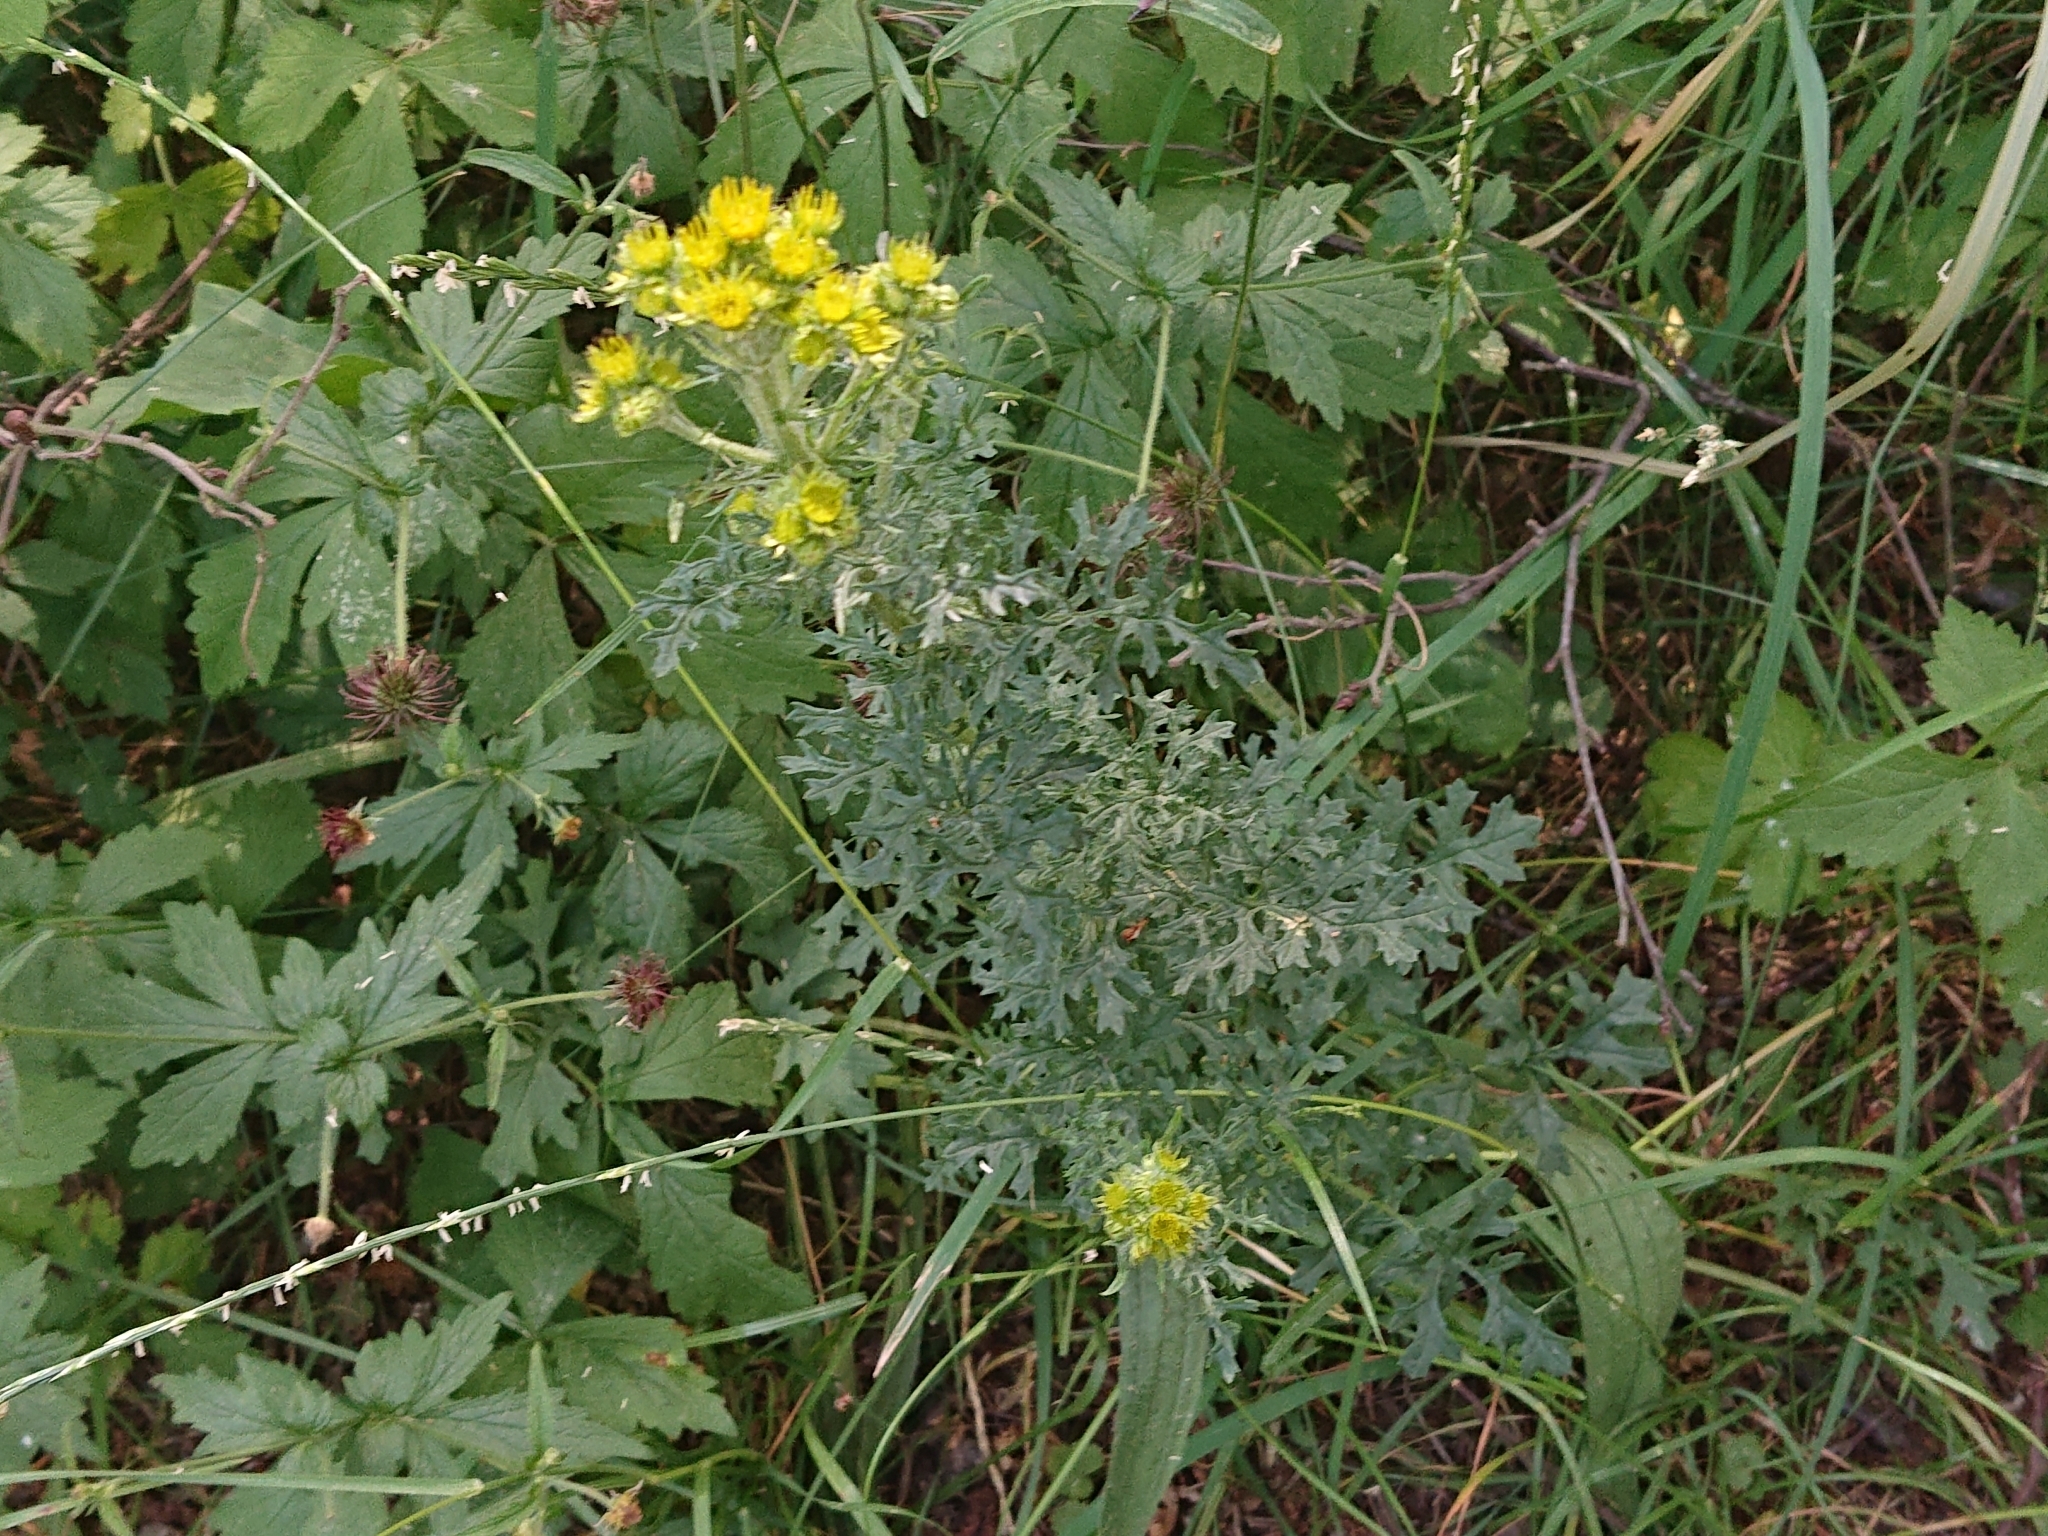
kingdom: Plantae
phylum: Tracheophyta
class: Magnoliopsida
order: Asterales
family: Asteraceae
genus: Jacobaea
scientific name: Jacobaea vulgaris
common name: Stinking willie
